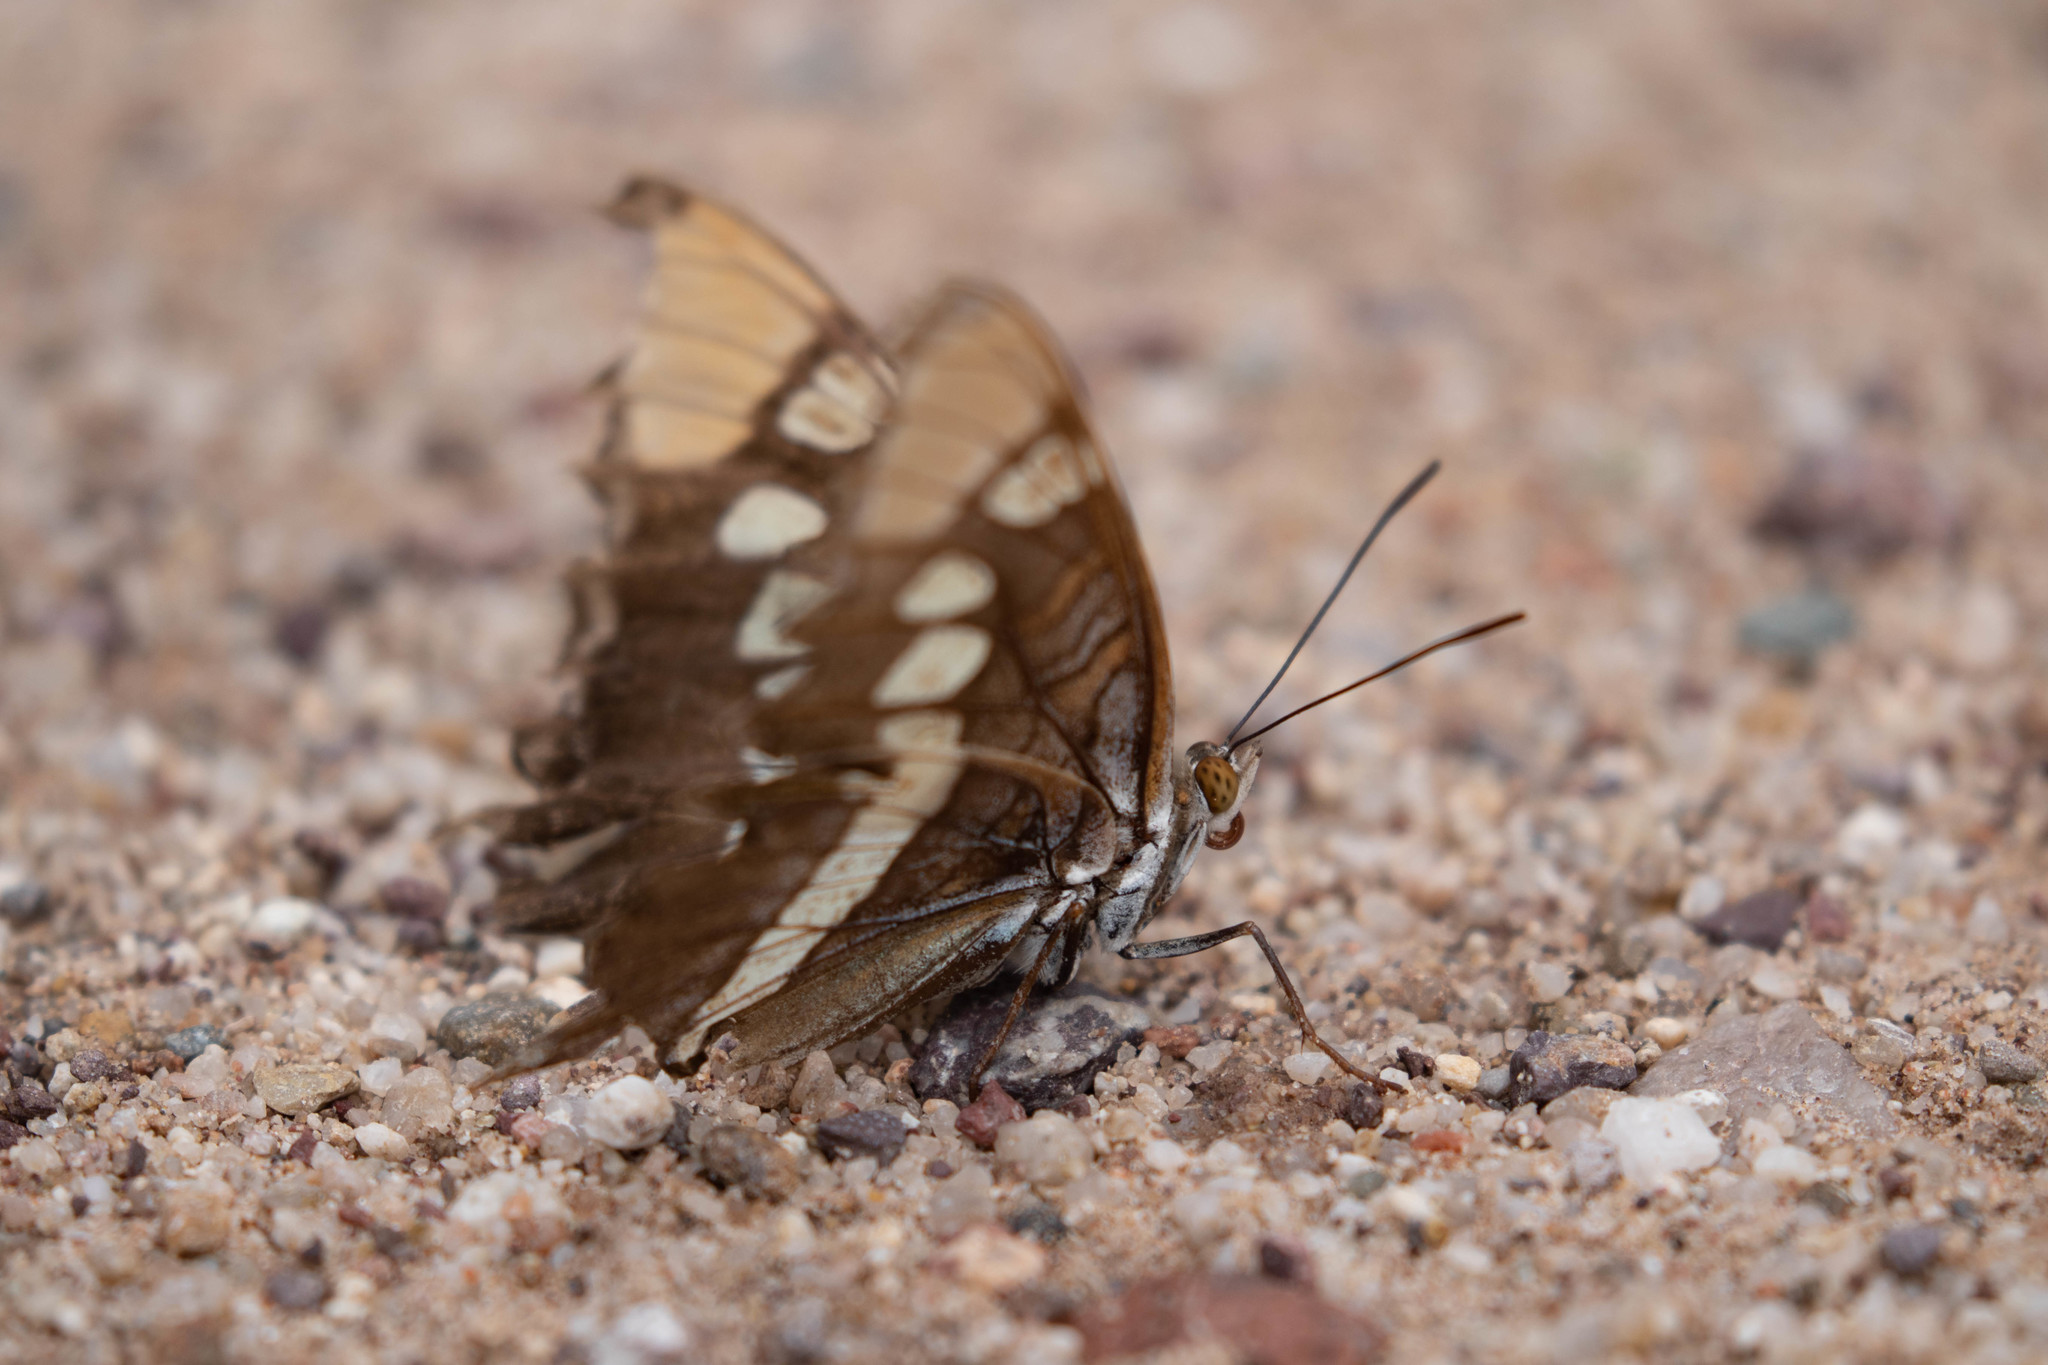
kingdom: Animalia
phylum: Arthropoda
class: Insecta
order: Lepidoptera
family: Nymphalidae
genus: Limenitis
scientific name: Limenitis bredowii
